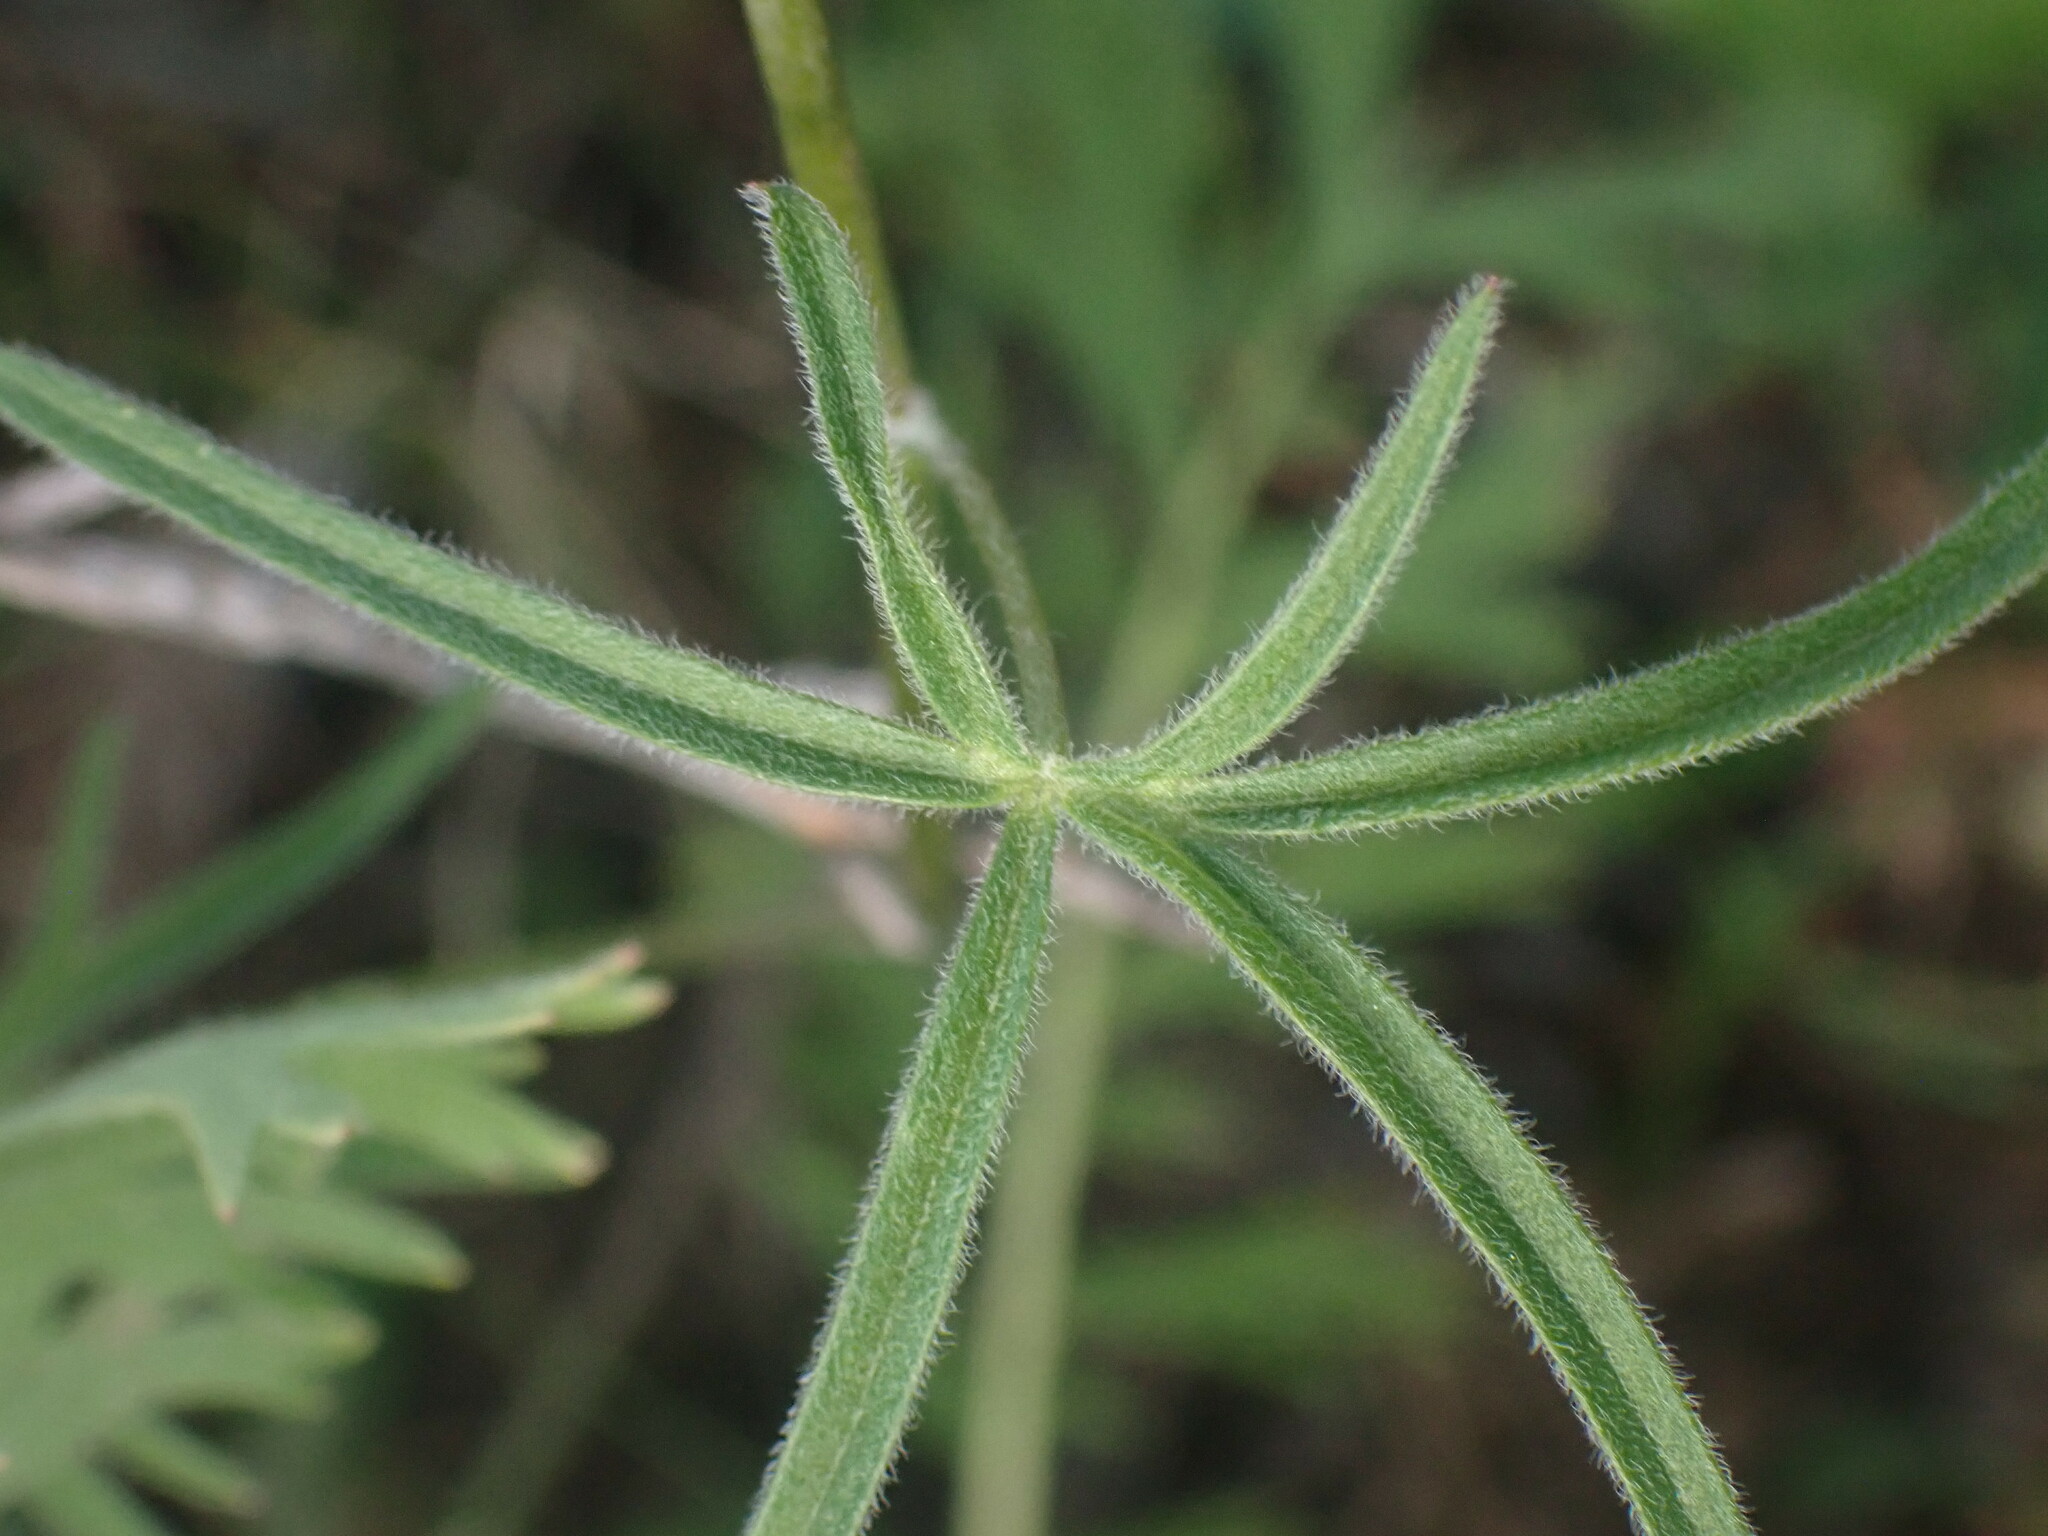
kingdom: Plantae
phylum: Tracheophyta
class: Magnoliopsida
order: Ranunculales
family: Ranunculaceae
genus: Delphinium
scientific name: Delphinium nuttallianum
